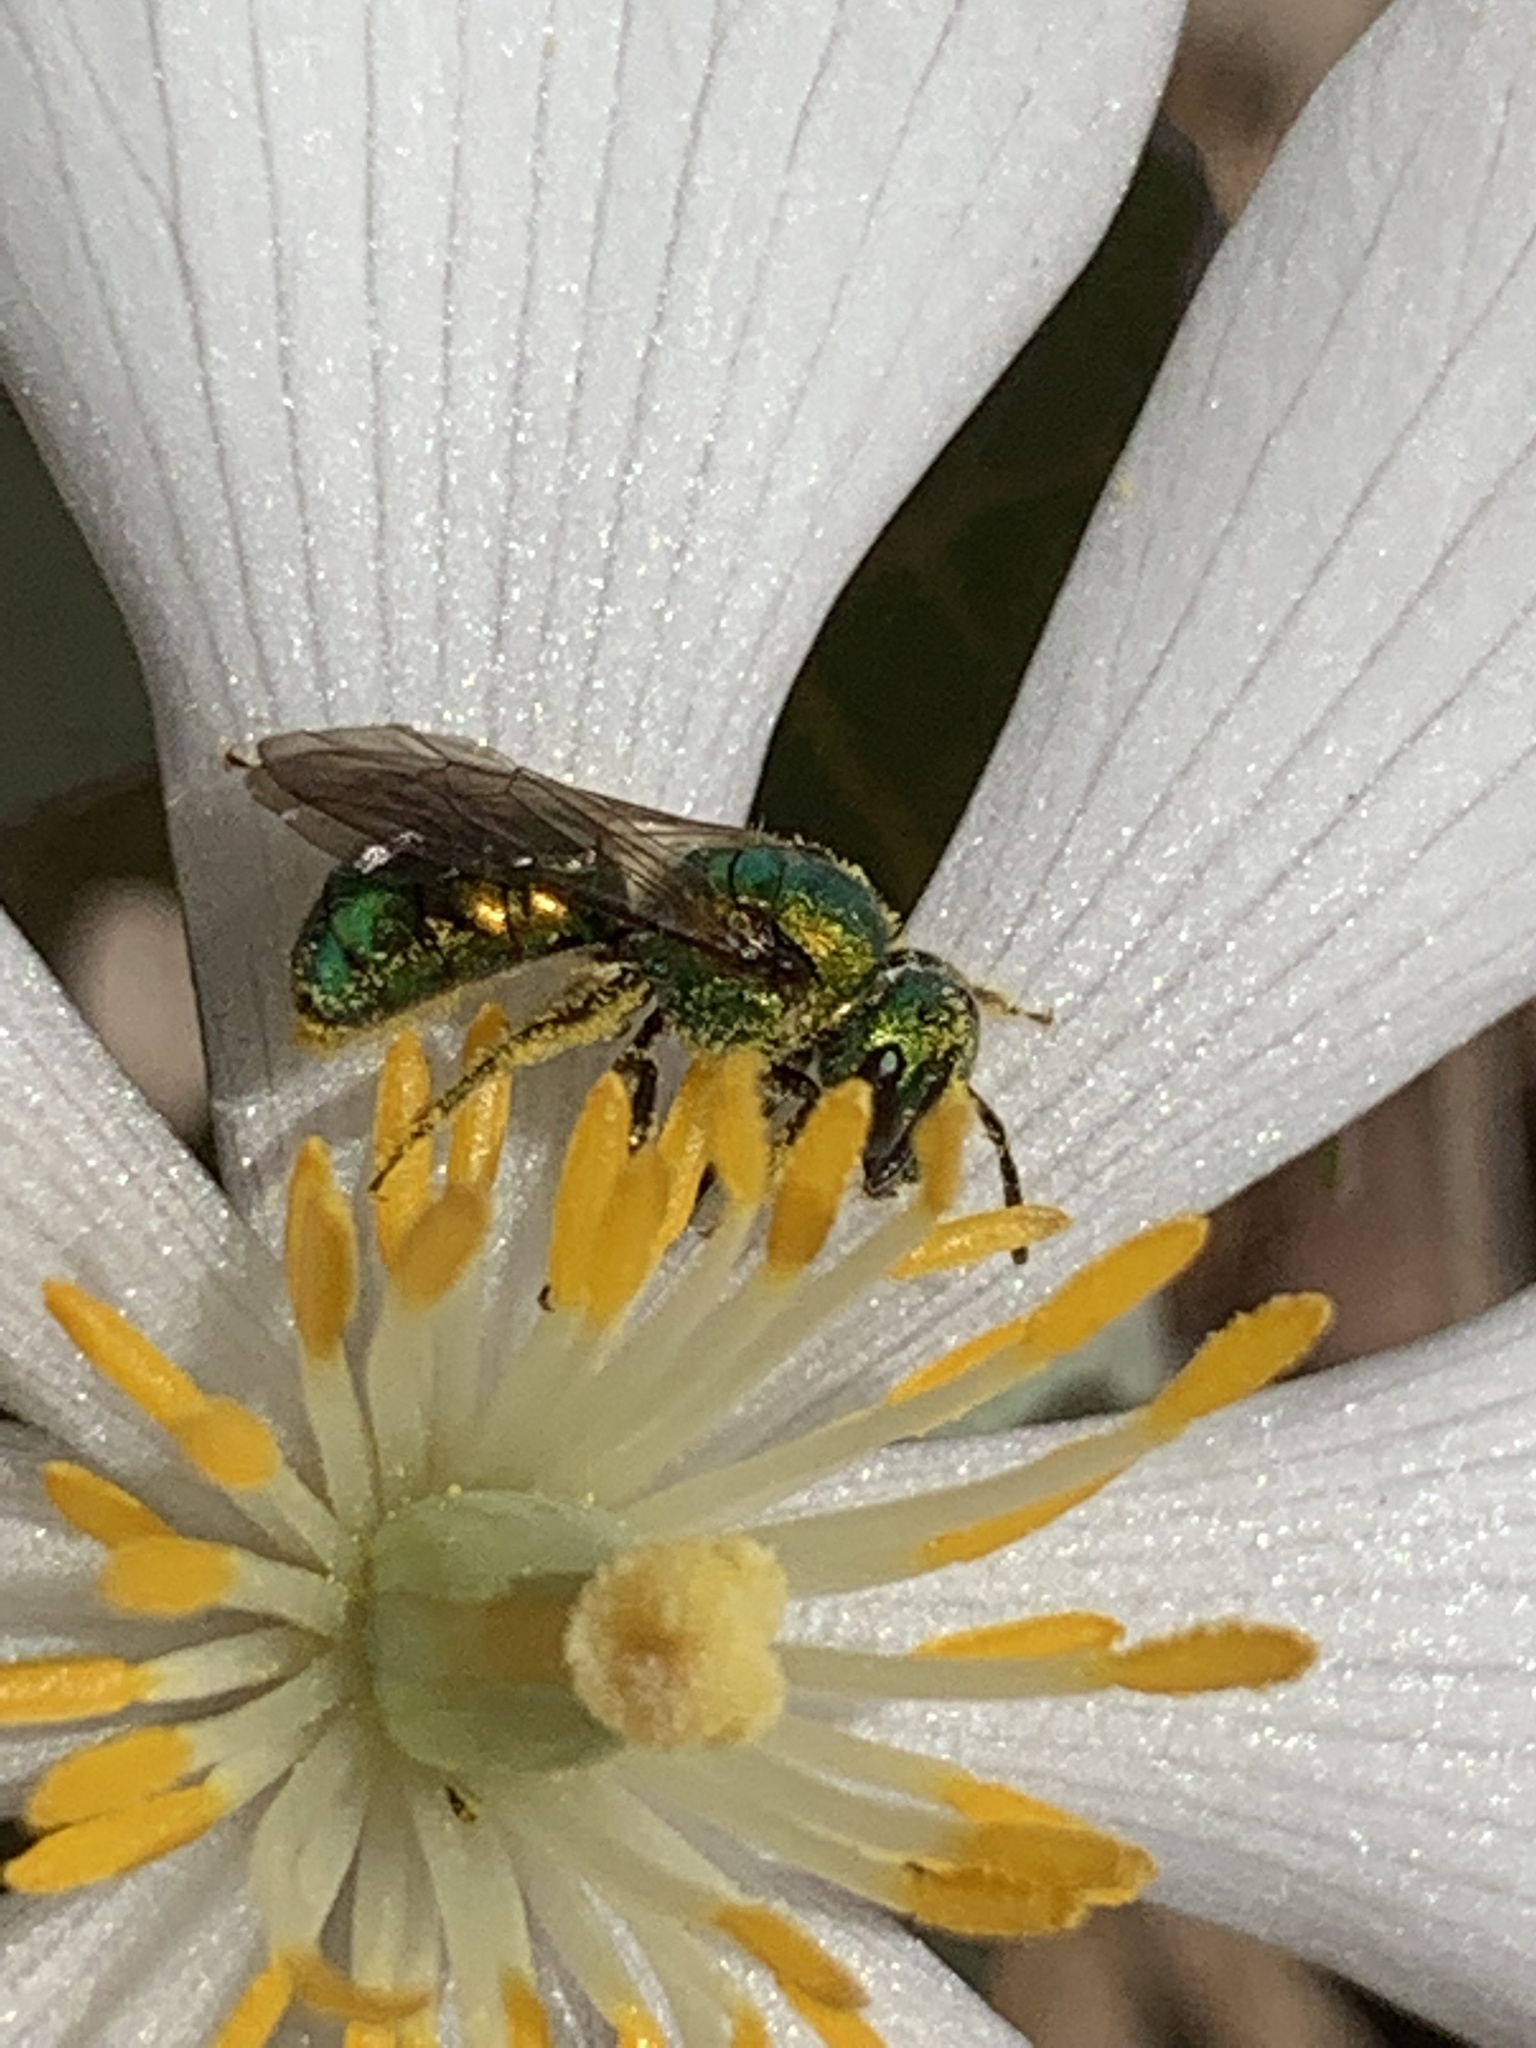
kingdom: Animalia
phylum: Arthropoda
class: Insecta
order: Hymenoptera
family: Halictidae
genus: Augochlora
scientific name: Augochlora pura
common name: Pure green sweat bee
